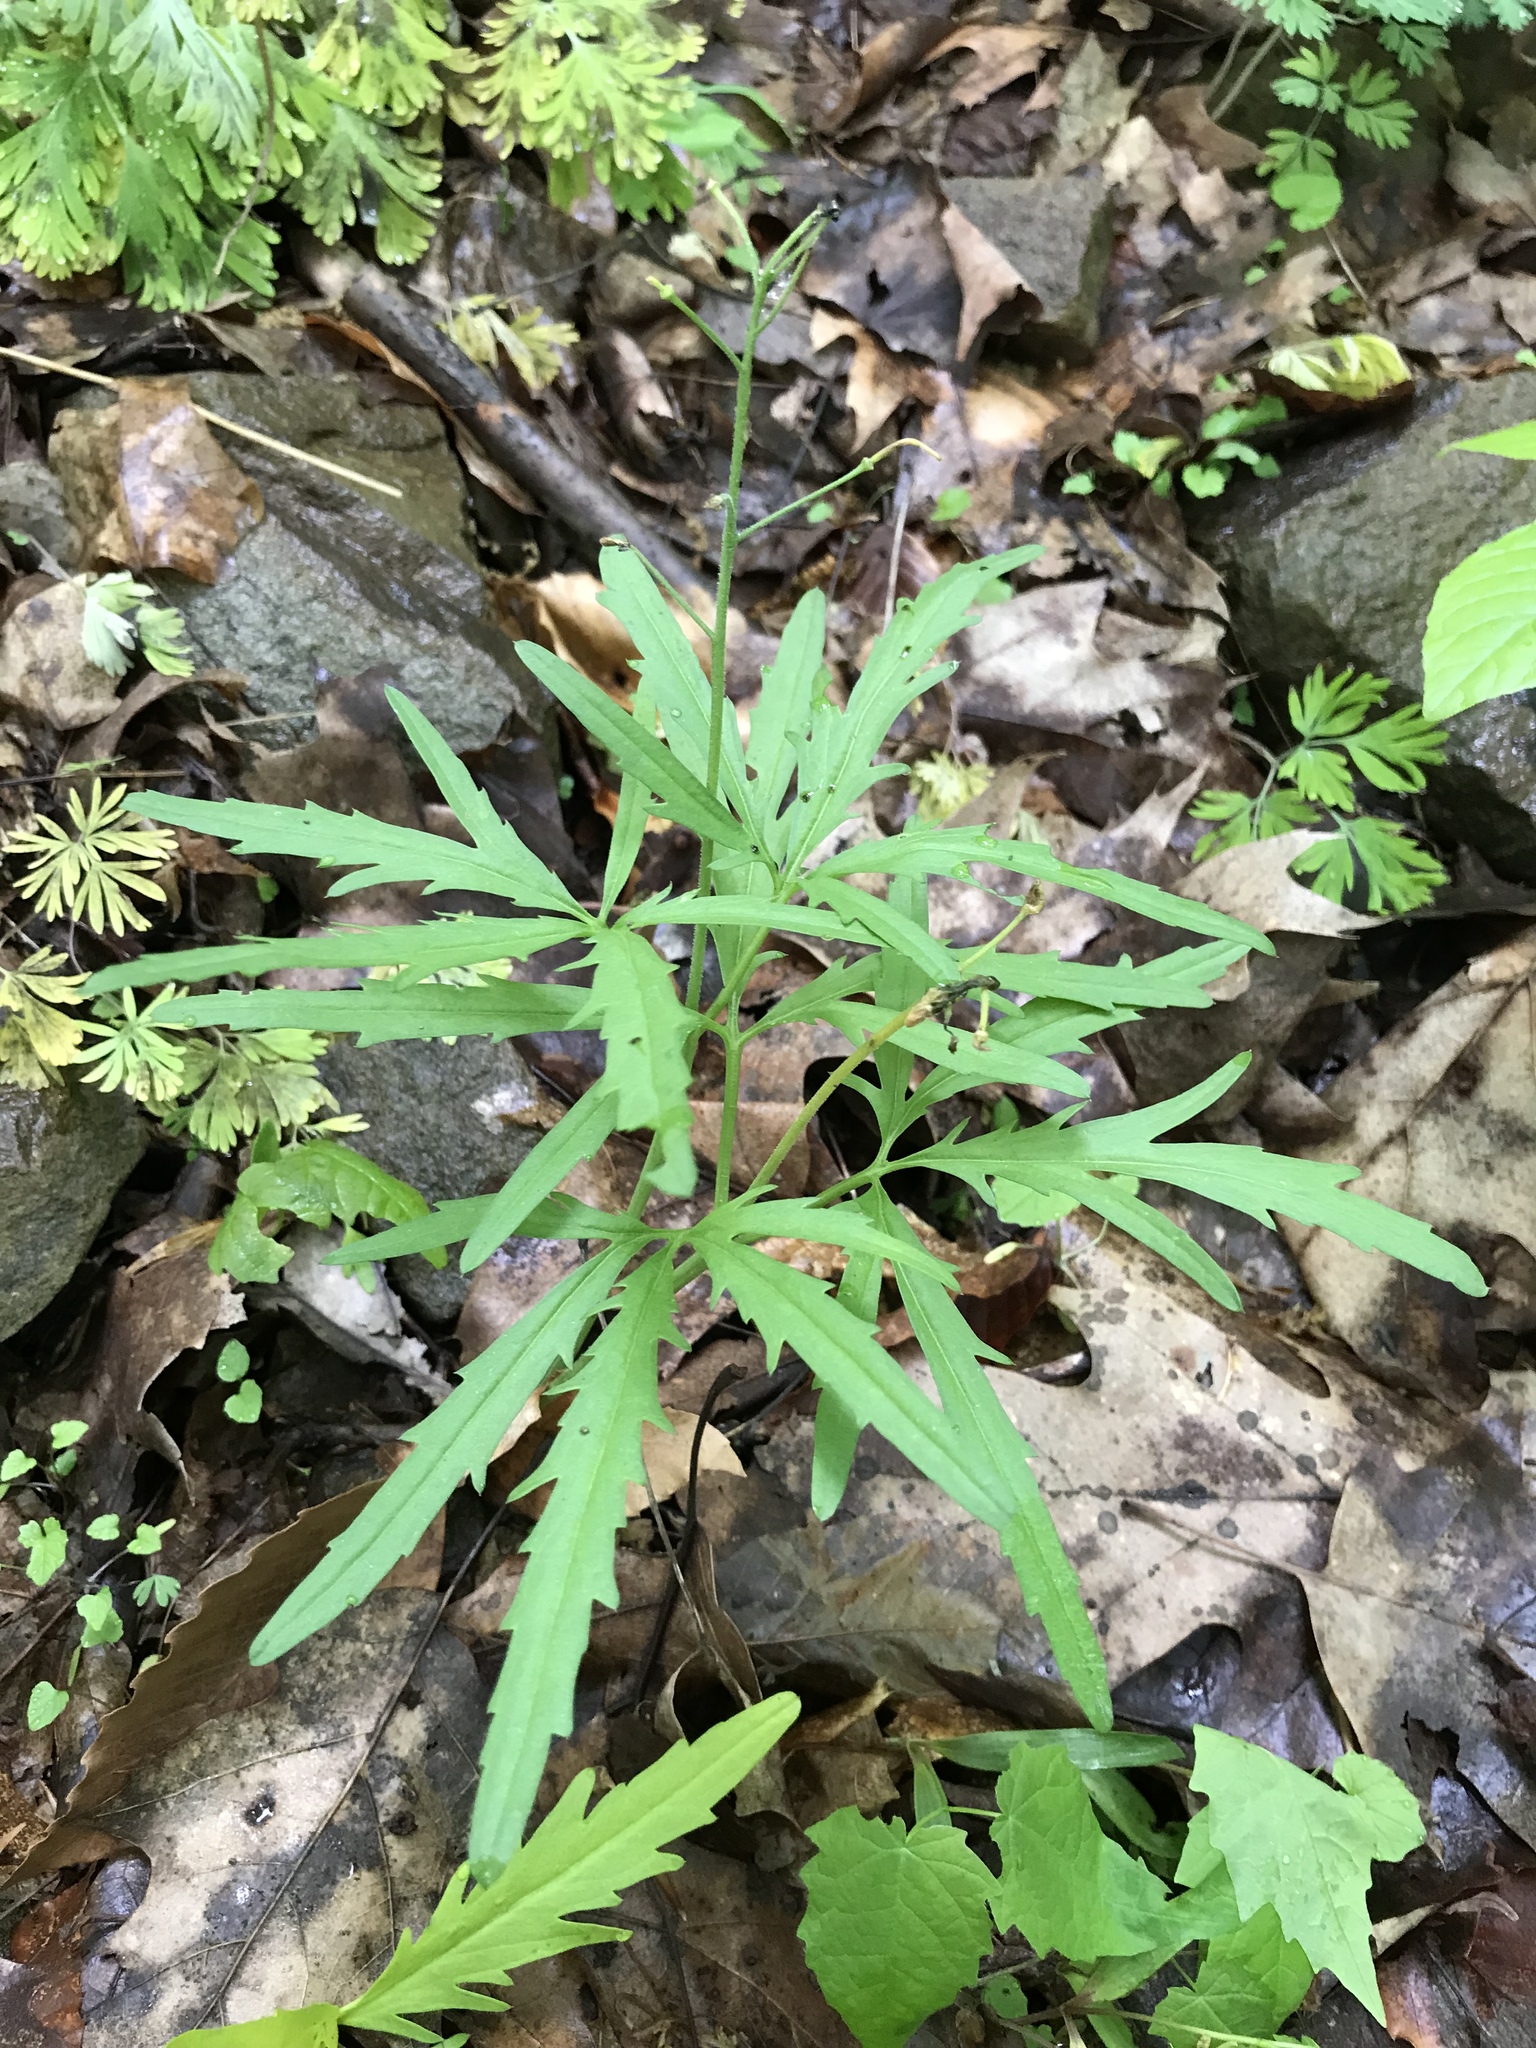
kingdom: Plantae
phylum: Tracheophyta
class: Magnoliopsida
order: Brassicales
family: Brassicaceae
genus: Cardamine
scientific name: Cardamine concatenata
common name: Cut-leaf toothcup
